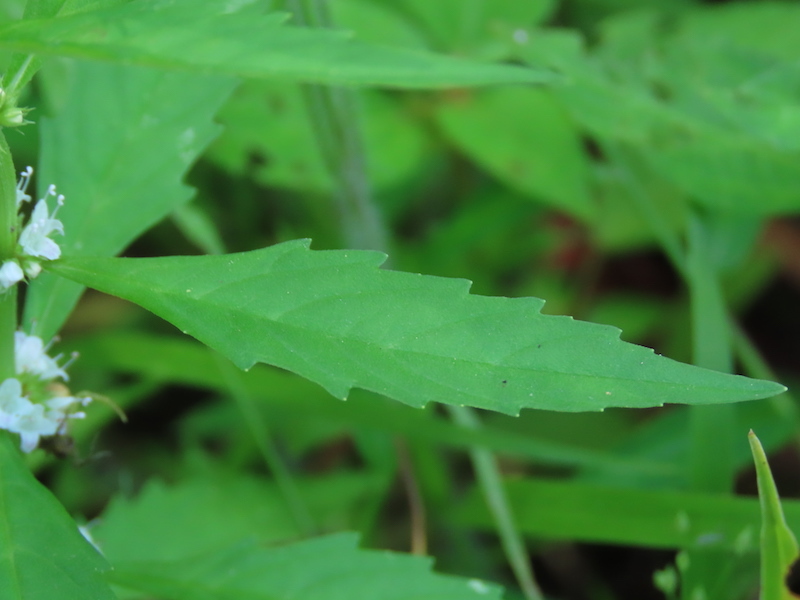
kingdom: Plantae
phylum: Tracheophyta
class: Magnoliopsida
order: Lamiales
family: Lamiaceae
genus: Lycopus
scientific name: Lycopus uniflorus
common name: Northern bugleweed
